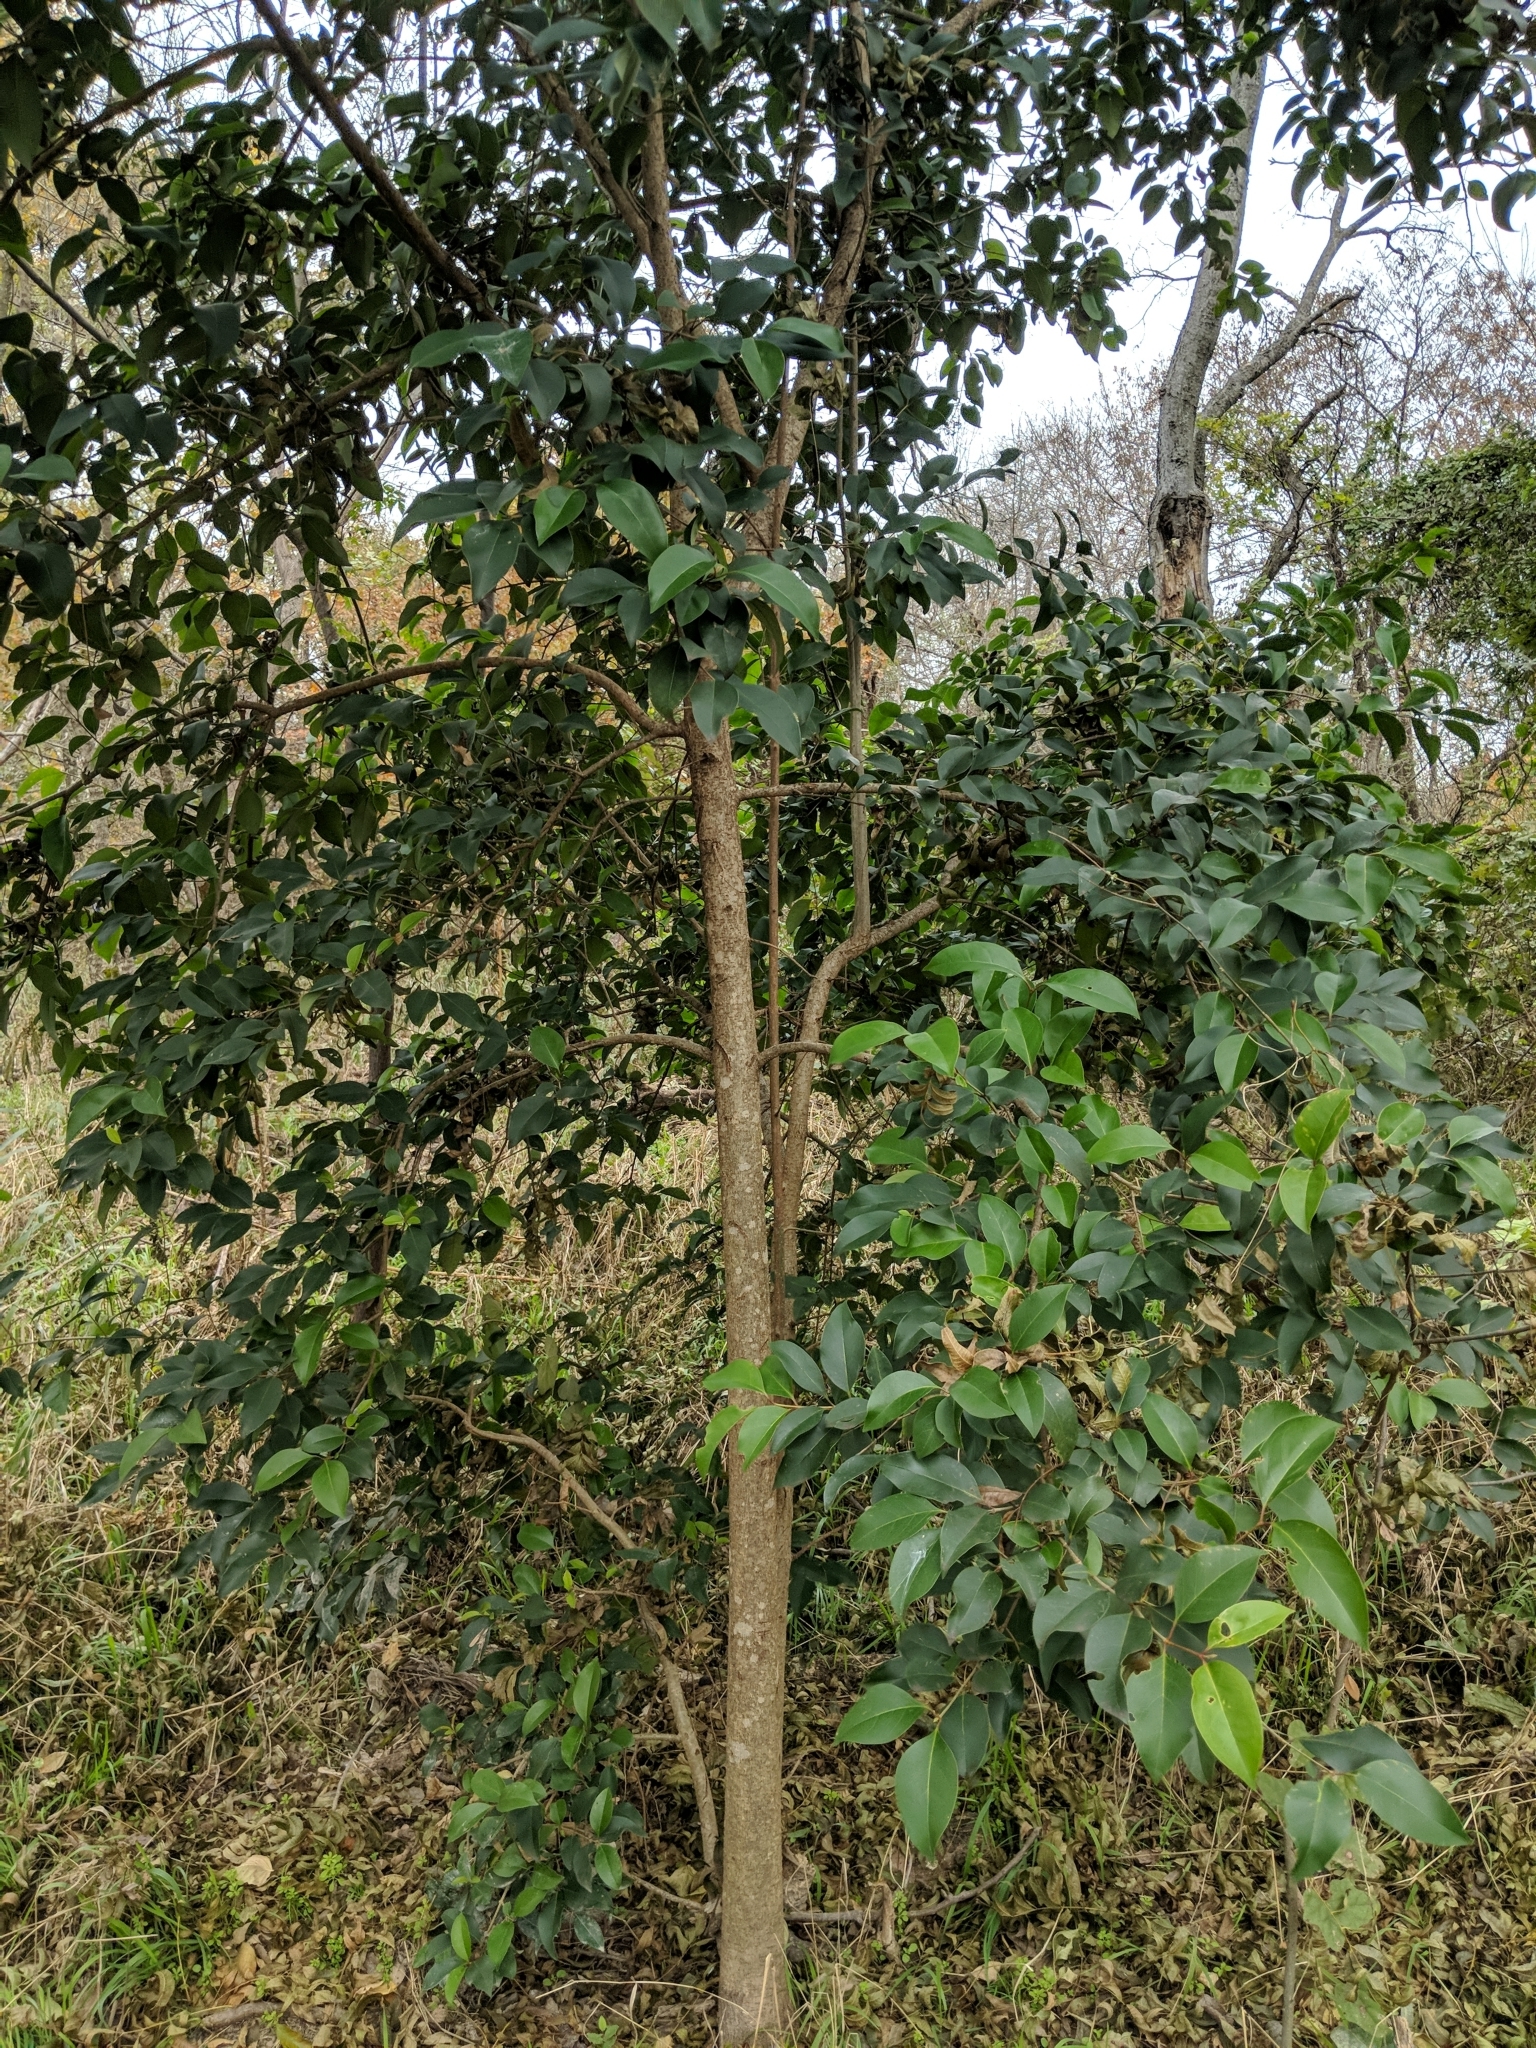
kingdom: Plantae
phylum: Tracheophyta
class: Magnoliopsida
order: Lamiales
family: Oleaceae
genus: Ligustrum
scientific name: Ligustrum lucidum
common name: Glossy privet
